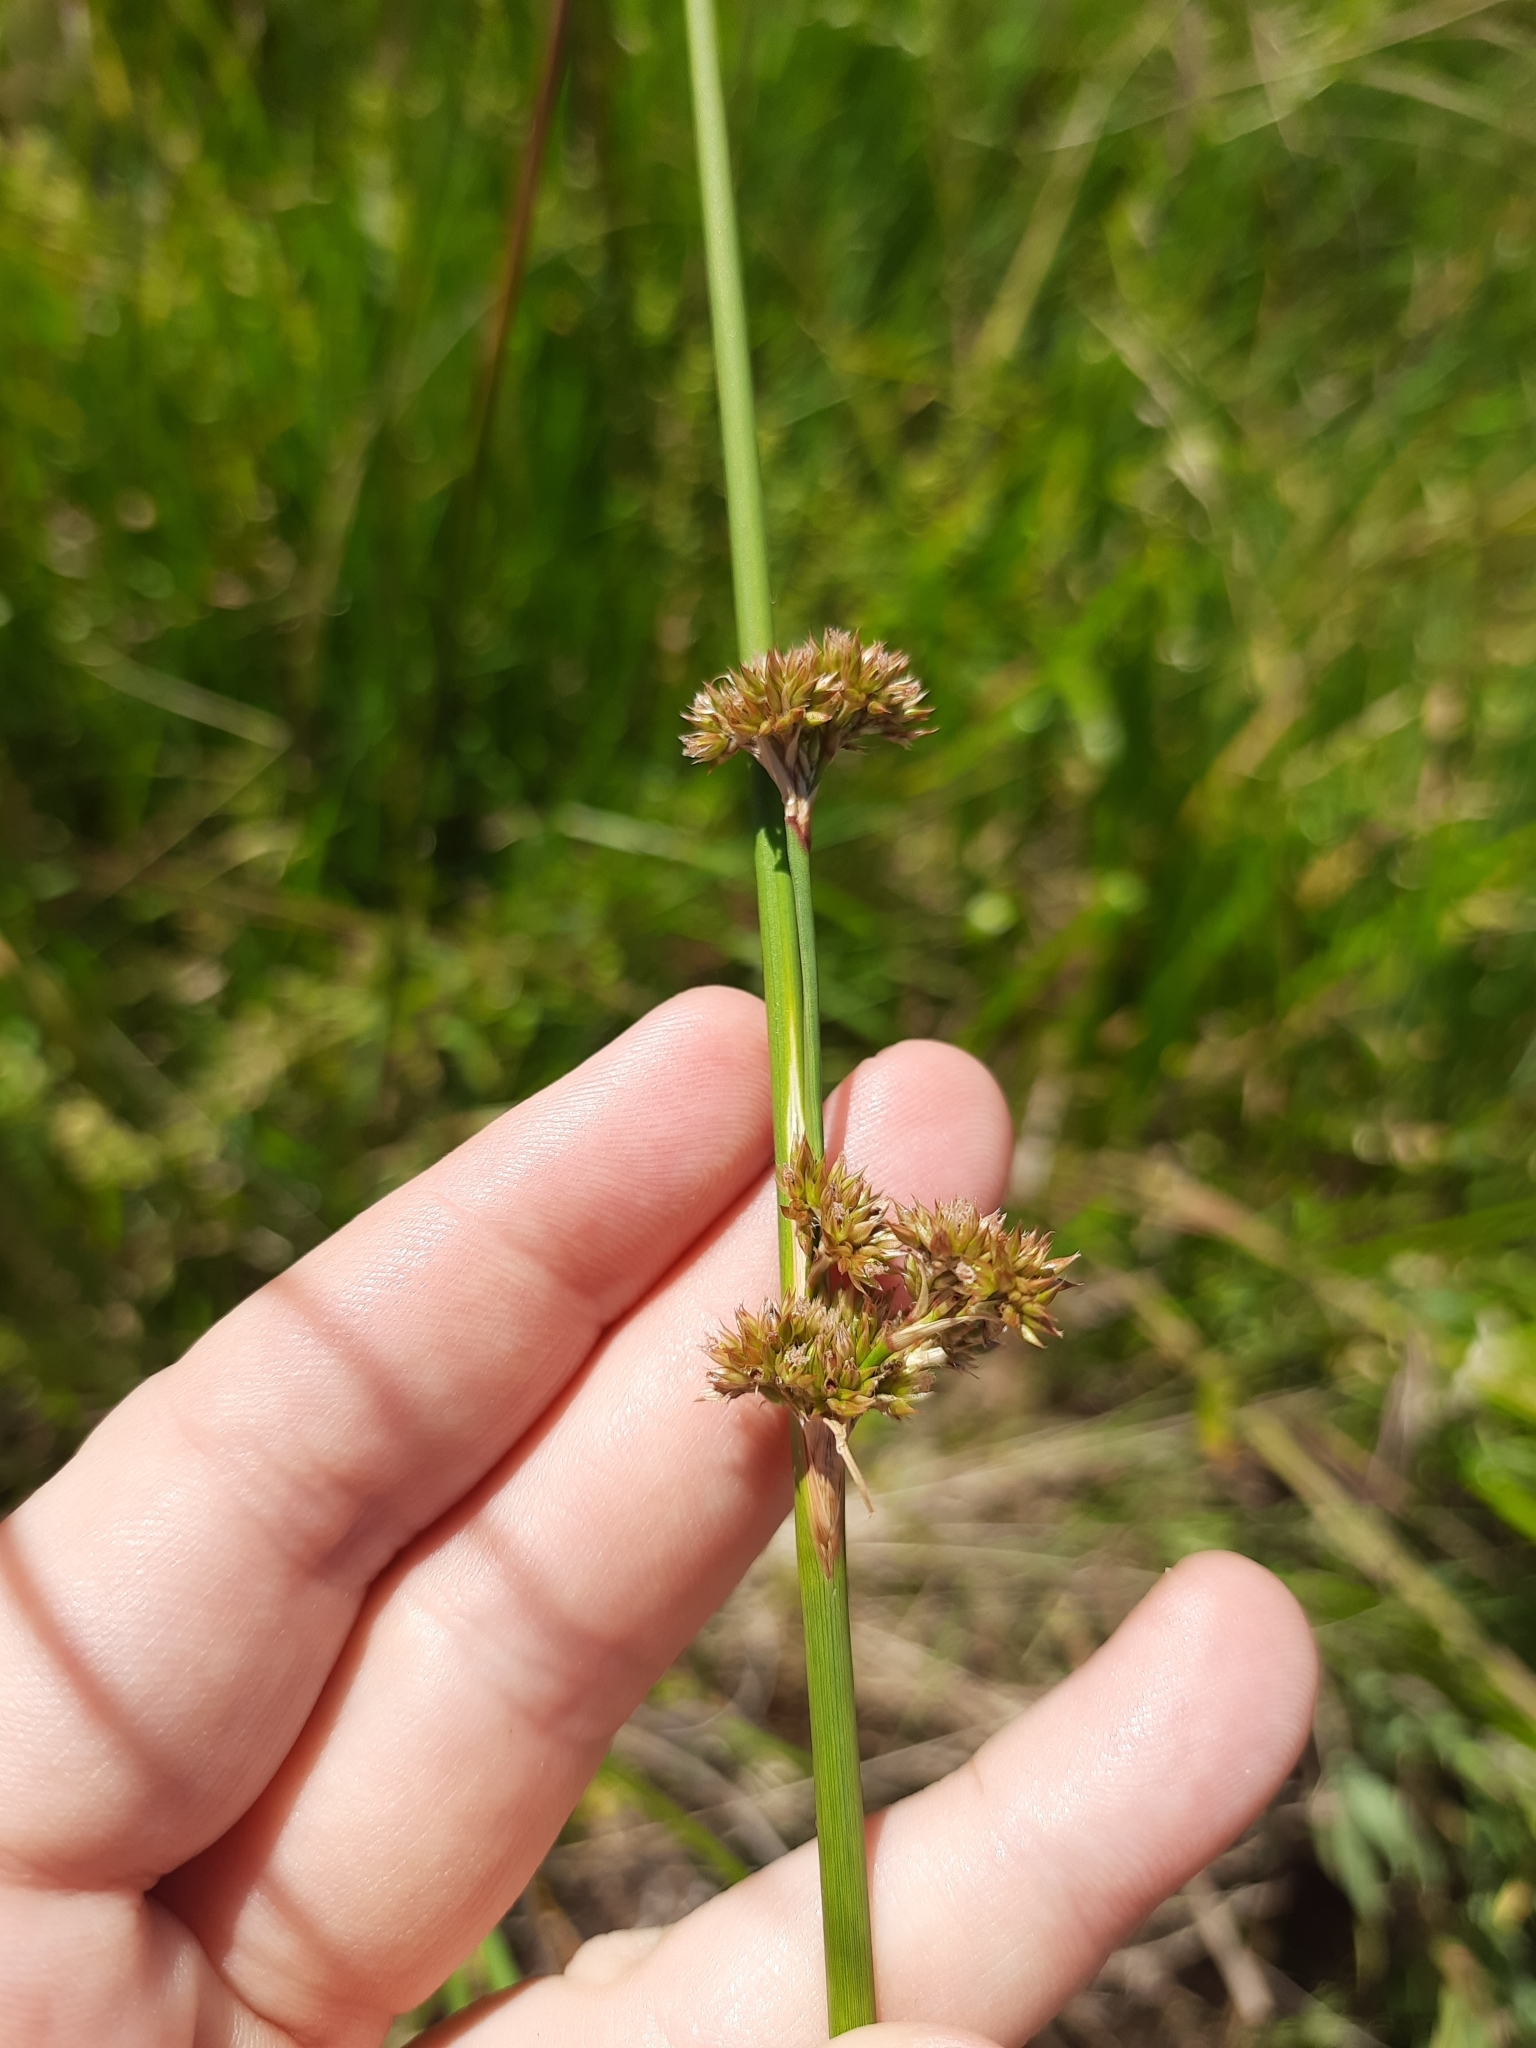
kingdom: Plantae
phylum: Tracheophyta
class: Liliopsida
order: Poales
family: Juncaceae
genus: Juncus
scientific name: Juncus edgariae
